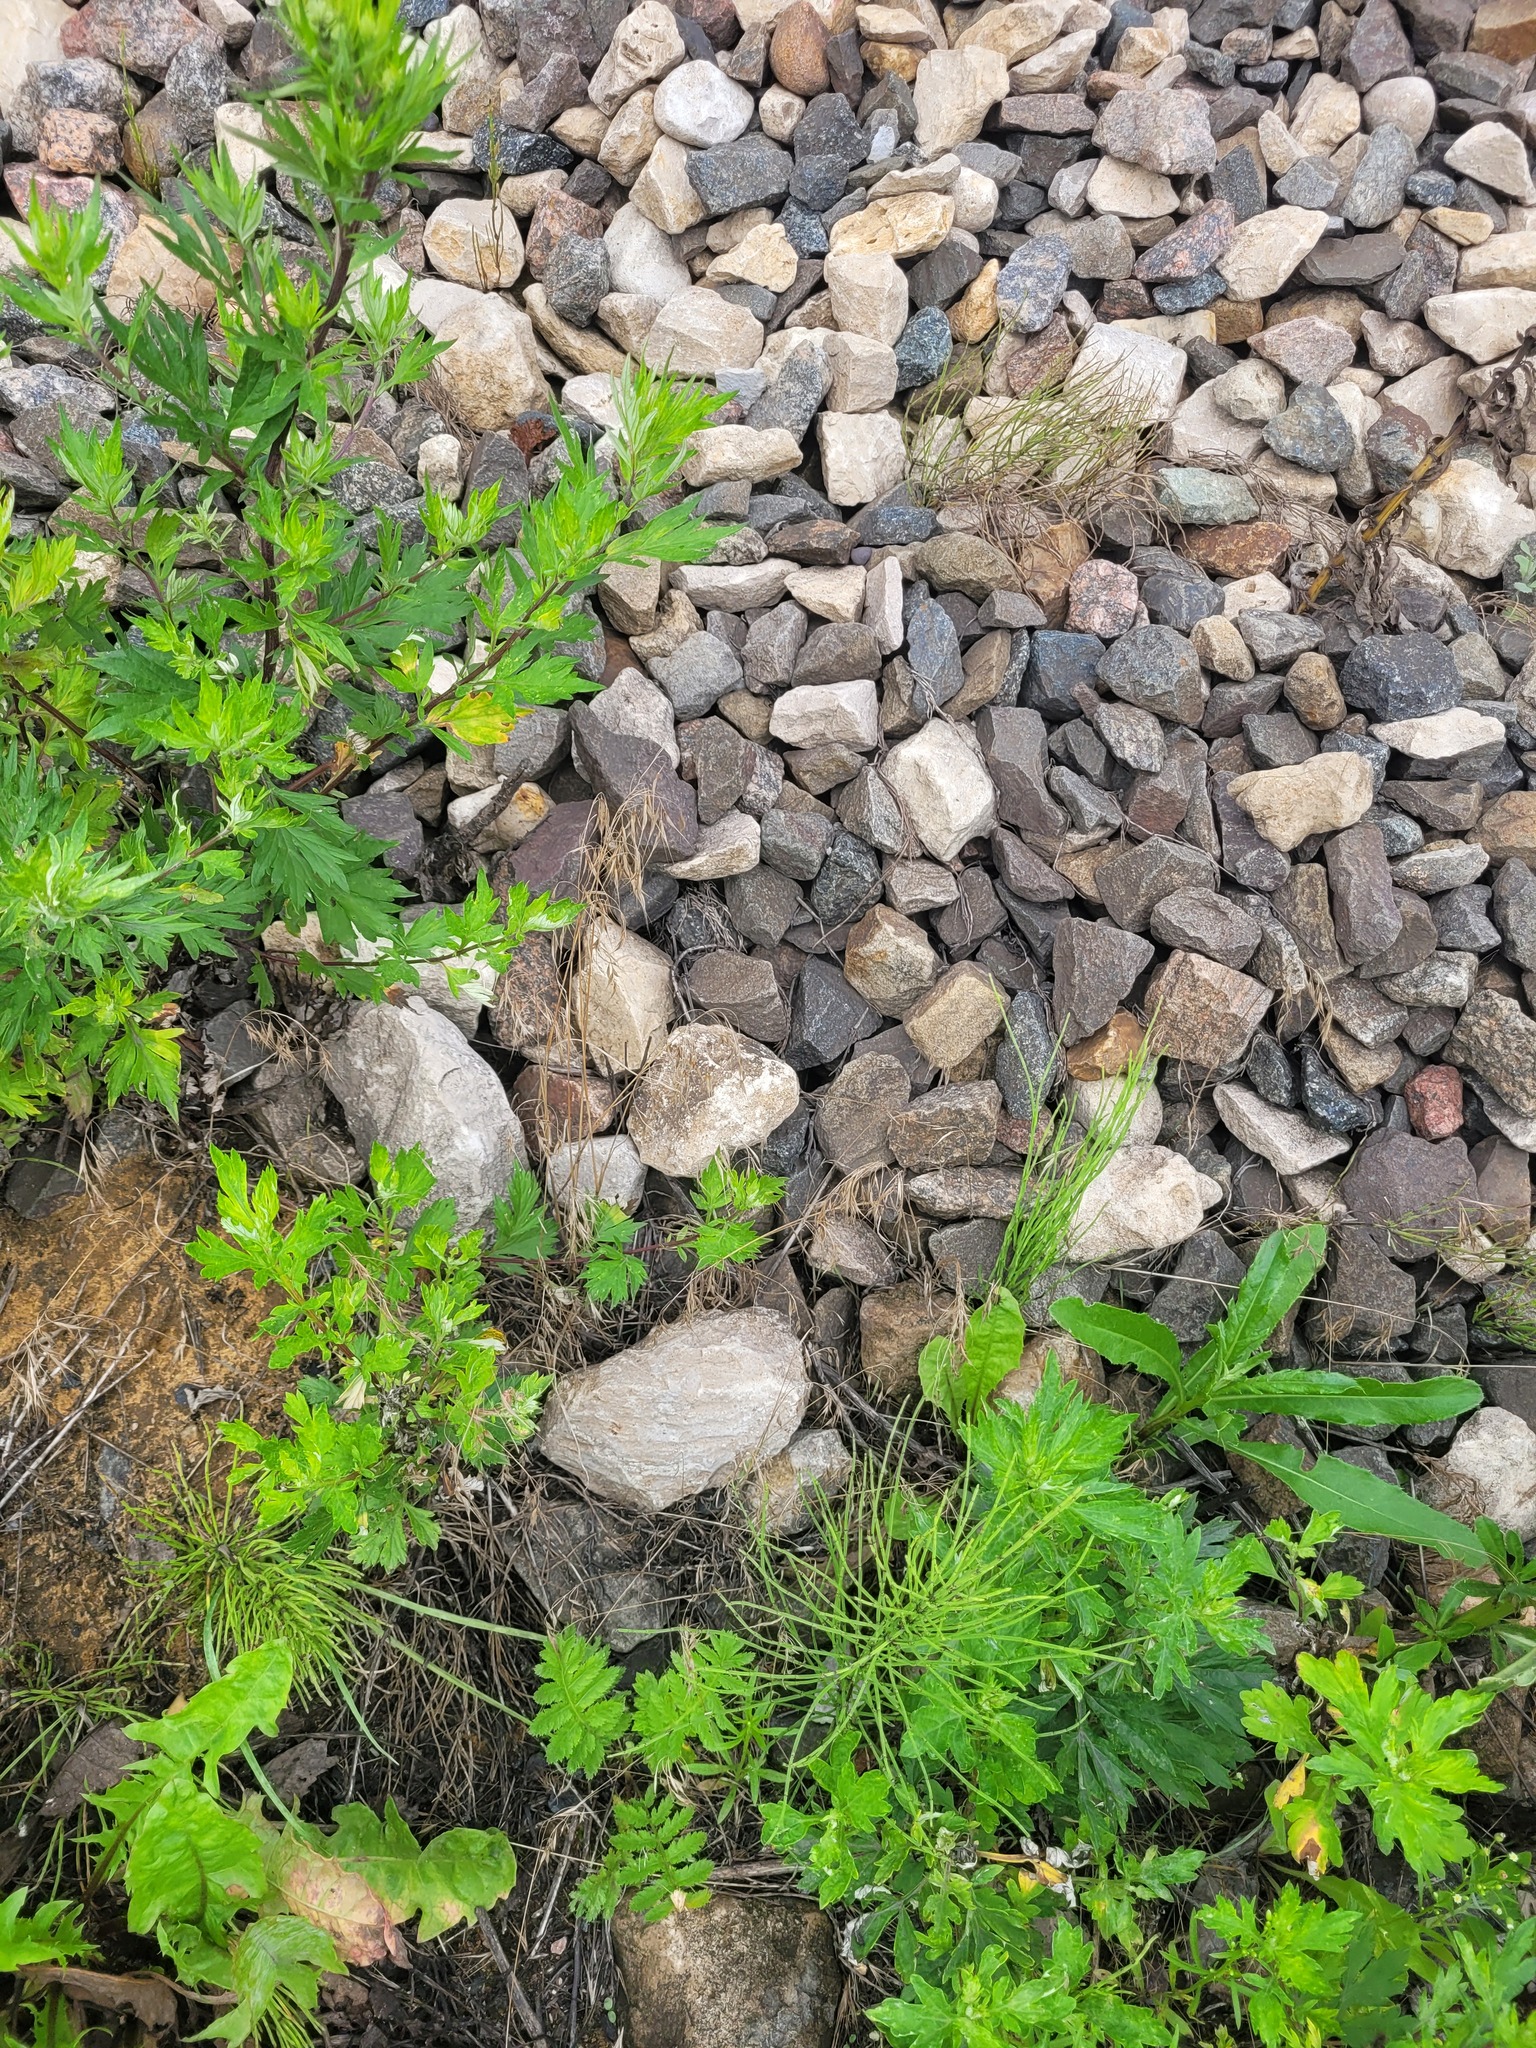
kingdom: Plantae
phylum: Tracheophyta
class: Liliopsida
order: Poales
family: Poaceae
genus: Bromus
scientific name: Bromus tectorum
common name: Cheatgrass
